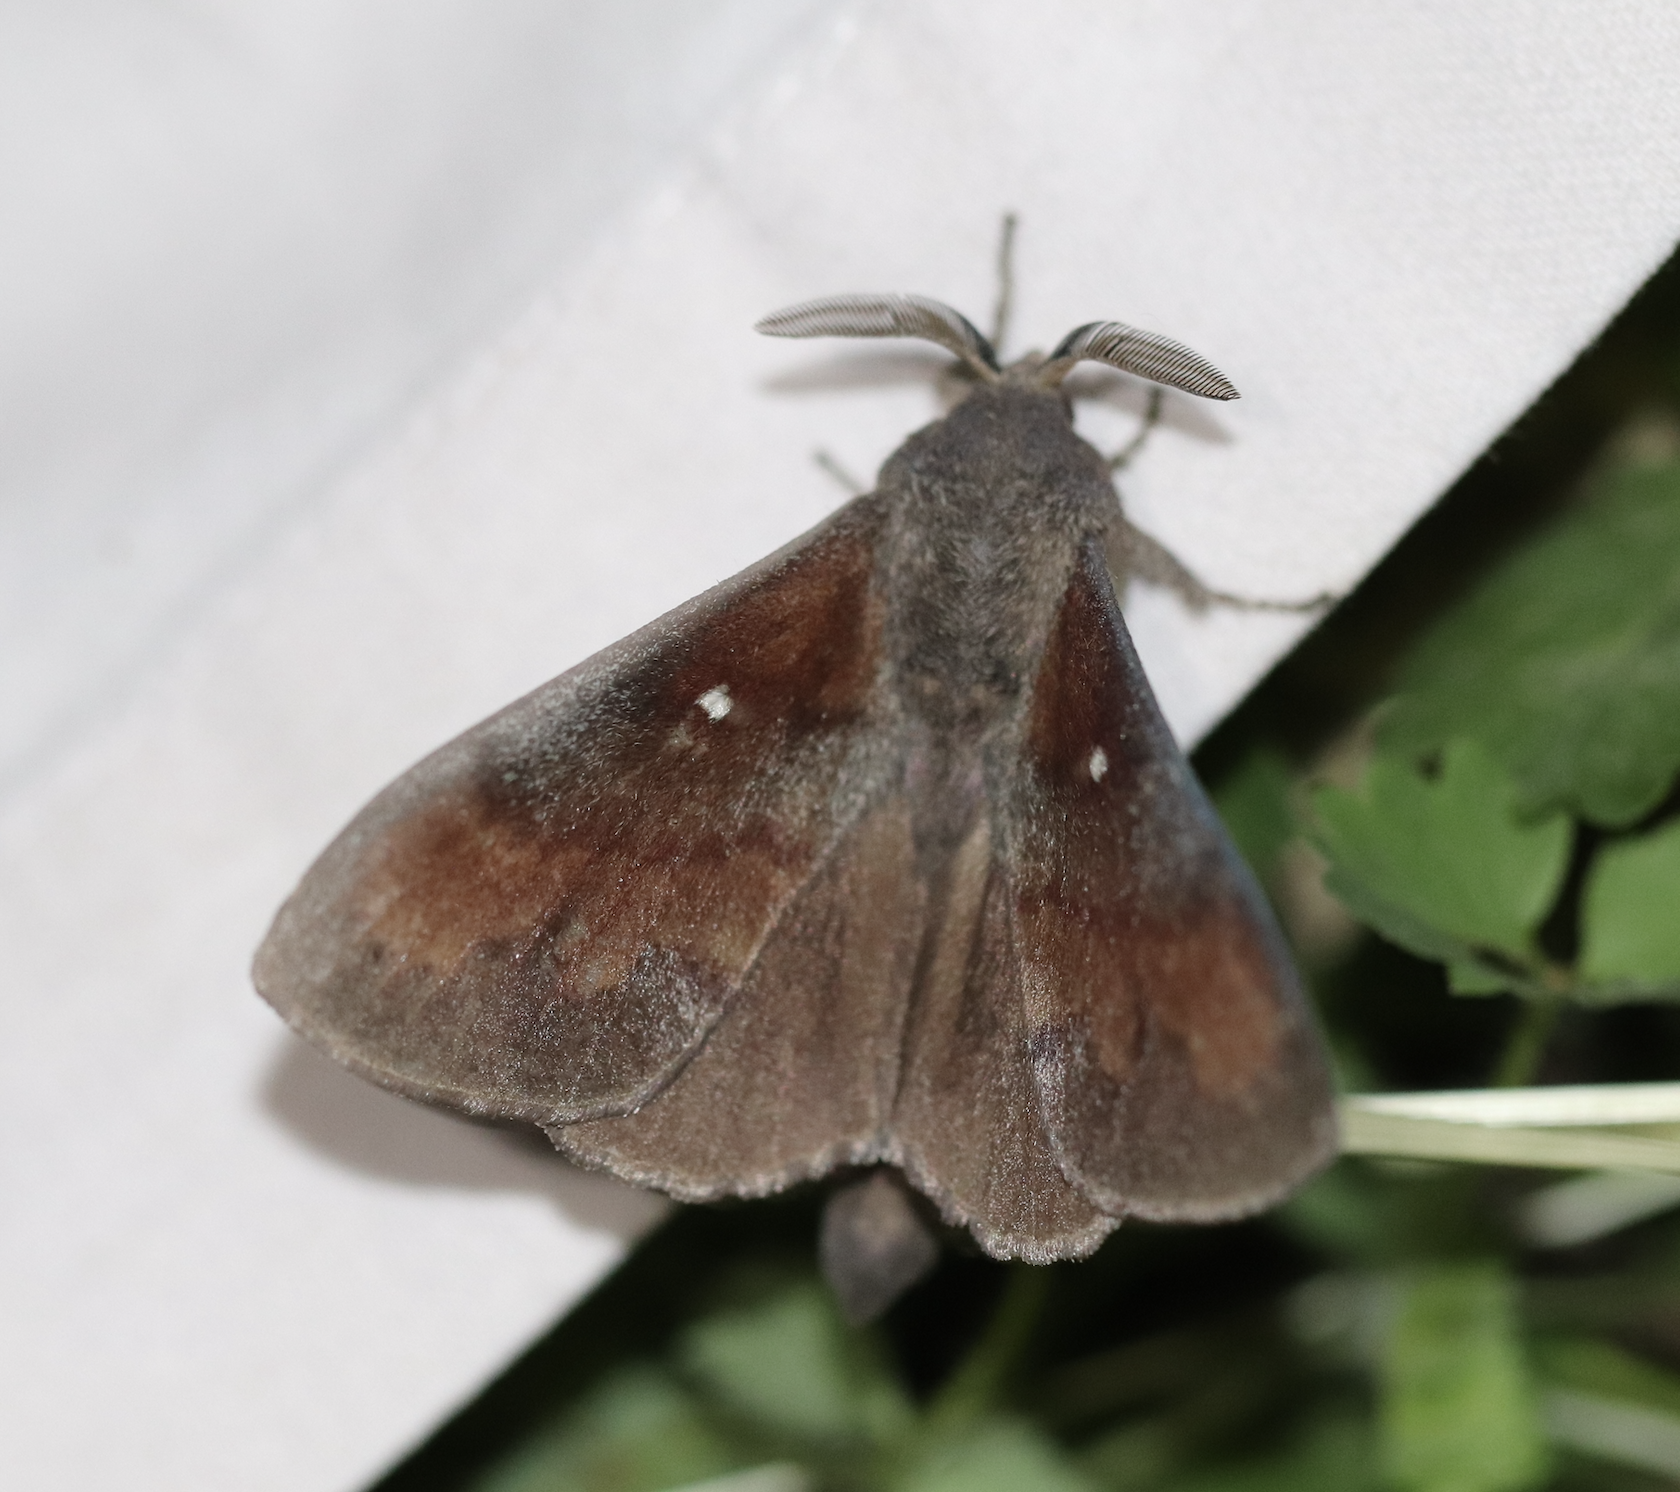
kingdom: Animalia
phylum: Arthropoda
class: Insecta
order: Lepidoptera
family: Lasiocampidae
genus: Dendrolimus
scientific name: Dendrolimus pini
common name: Pine-tree lappet
